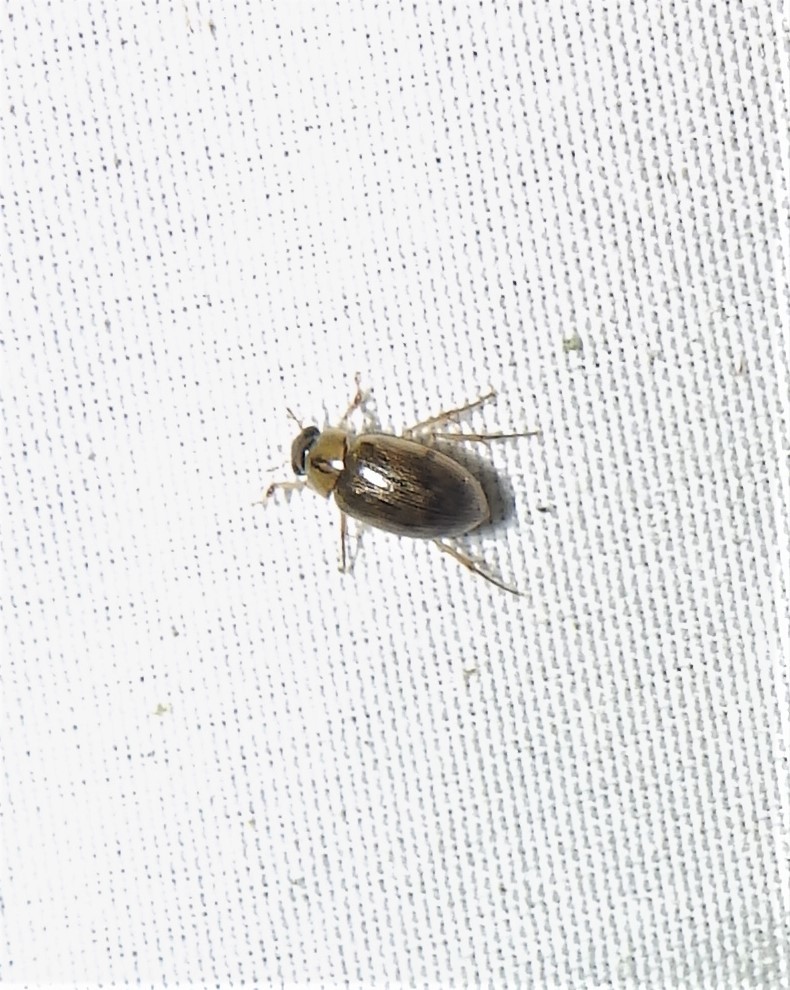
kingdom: Animalia
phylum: Arthropoda
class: Insecta
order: Coleoptera
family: Hydrophilidae
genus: Berosus
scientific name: Berosus
